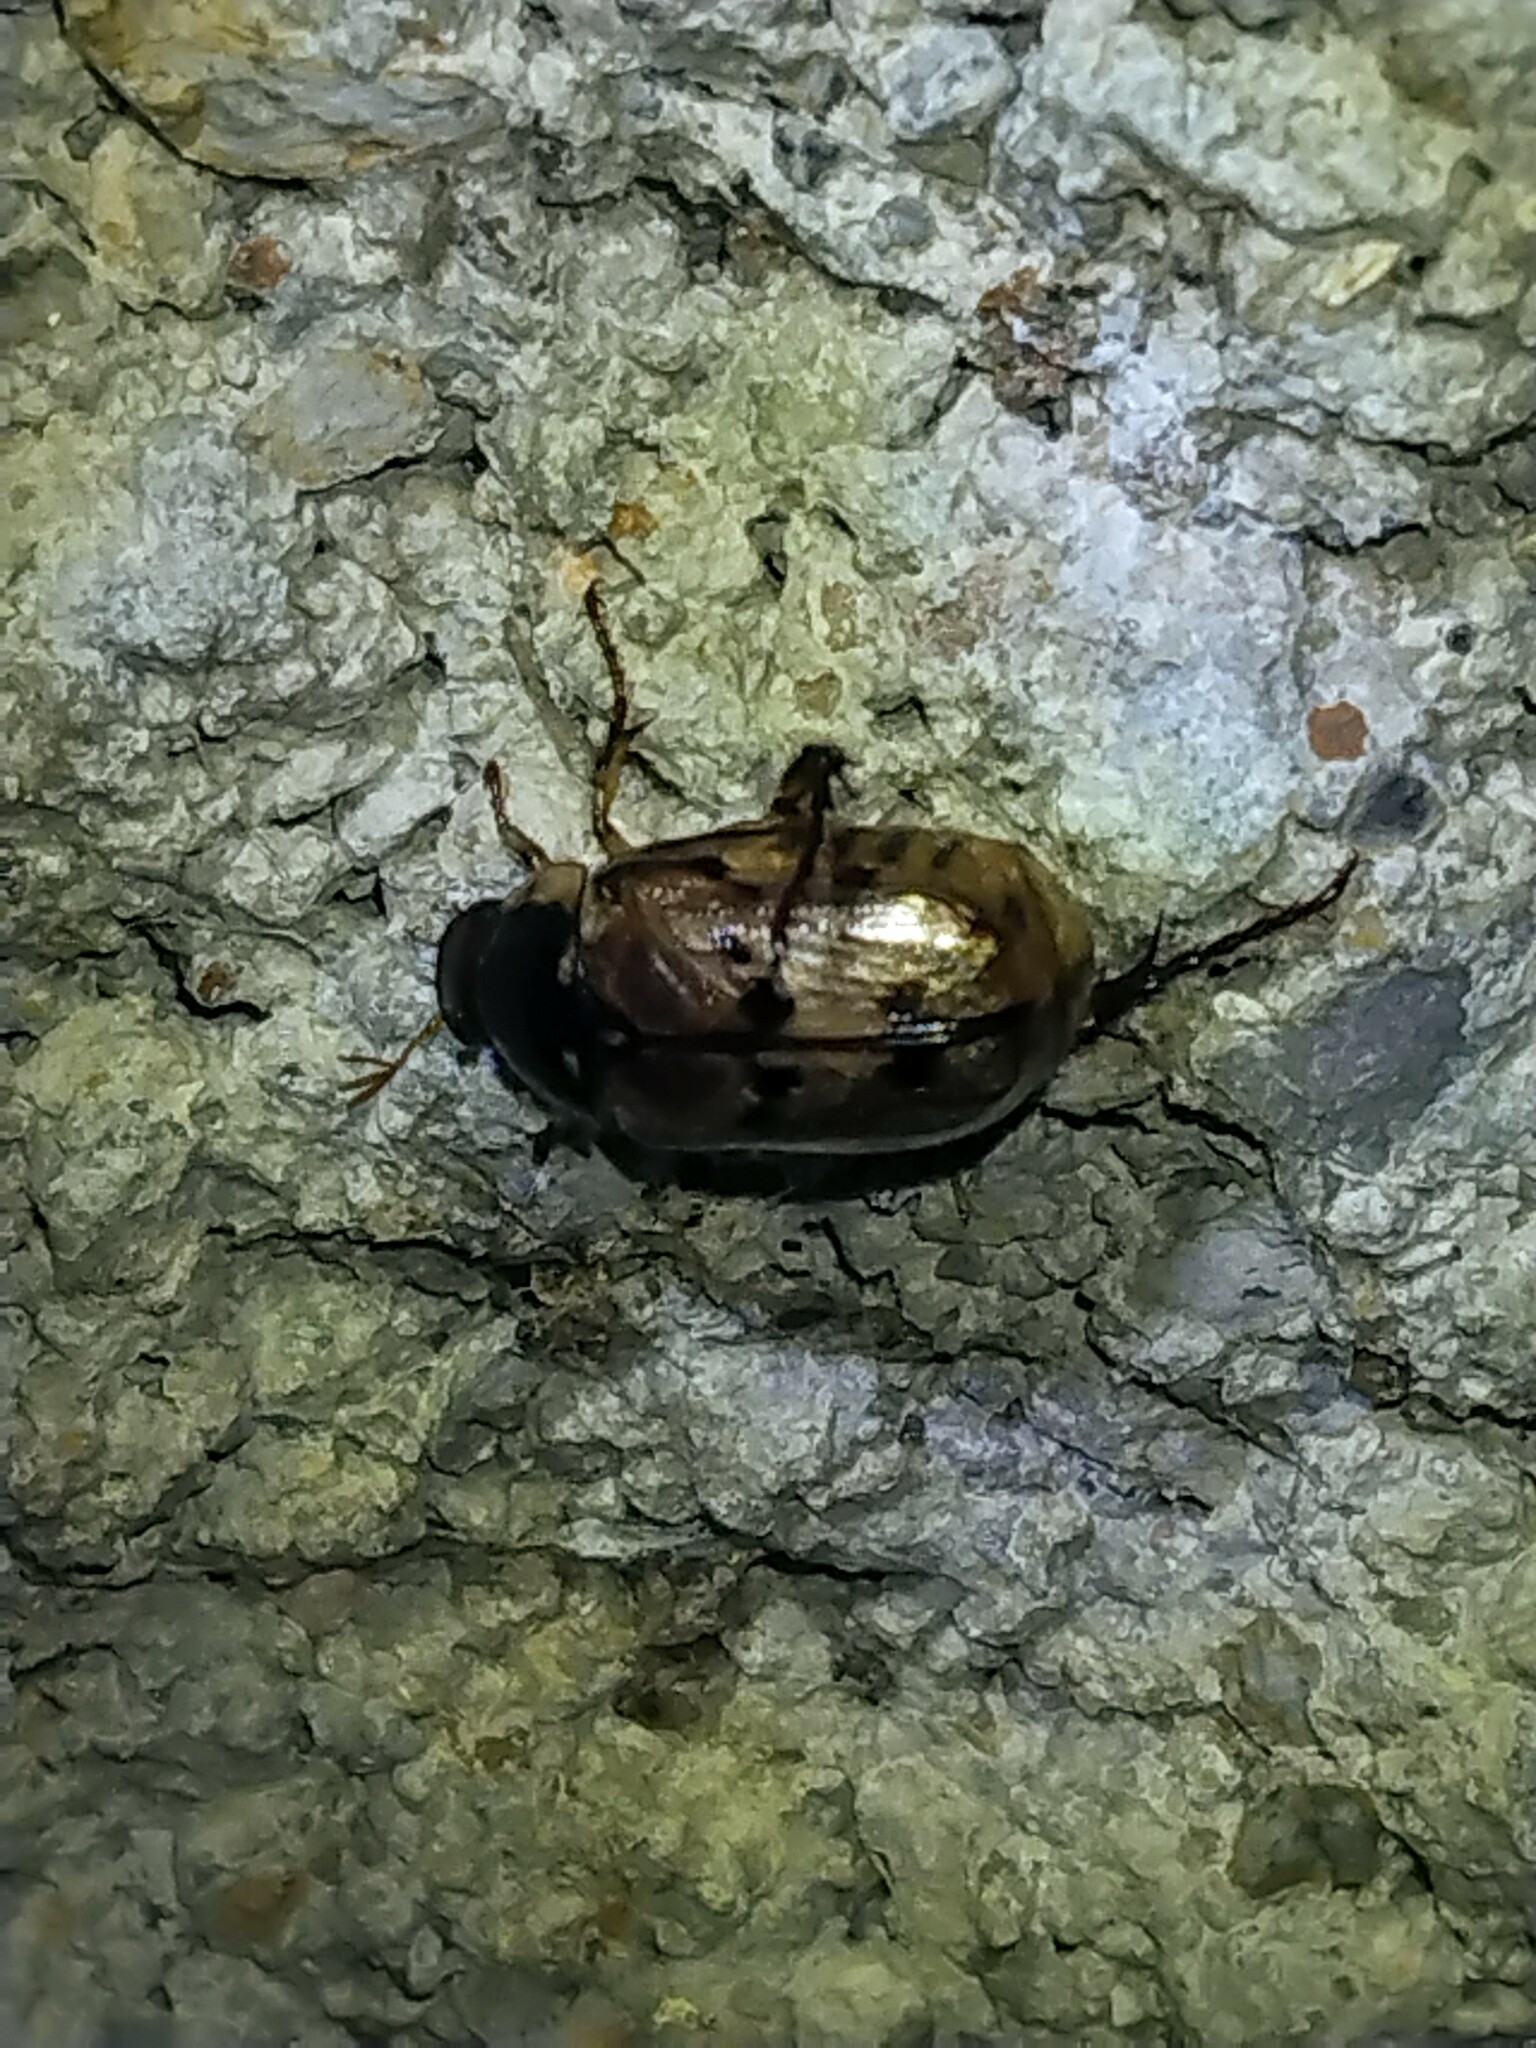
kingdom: Animalia
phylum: Arthropoda
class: Insecta
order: Coleoptera
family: Scarabaeidae
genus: Paranomala
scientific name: Paranomala undulata
